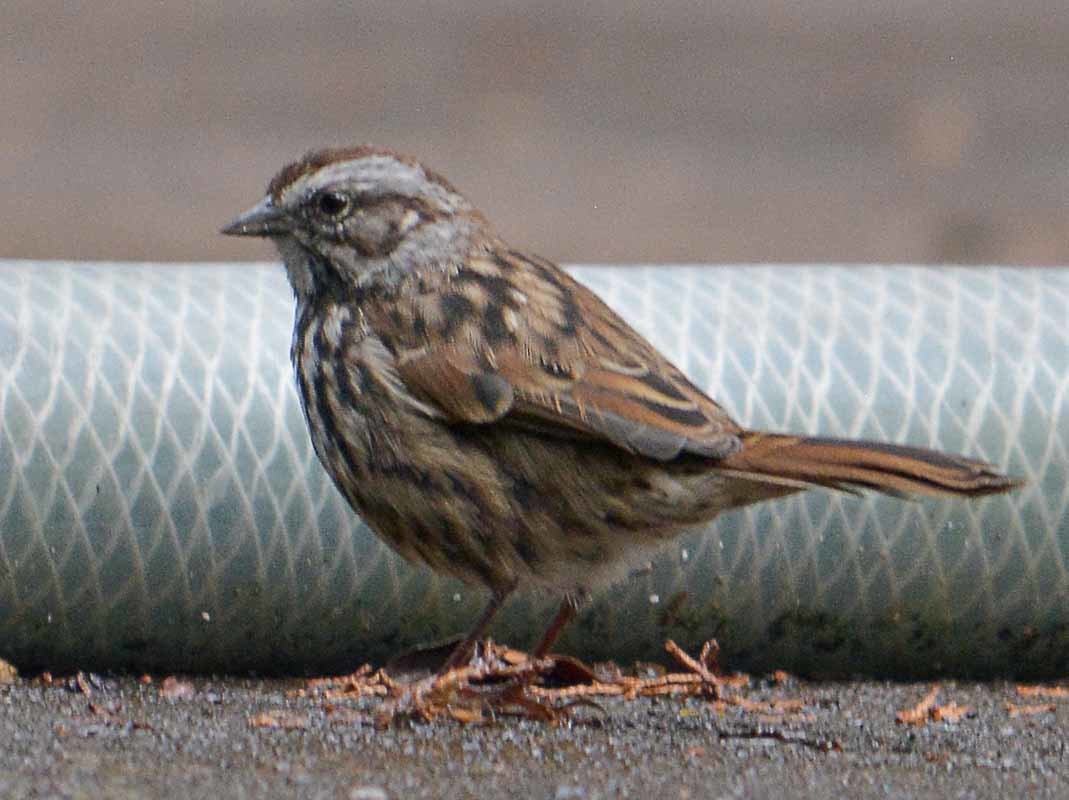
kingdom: Animalia
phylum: Chordata
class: Aves
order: Passeriformes
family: Passerellidae
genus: Melospiza
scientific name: Melospiza melodia
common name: Song sparrow
